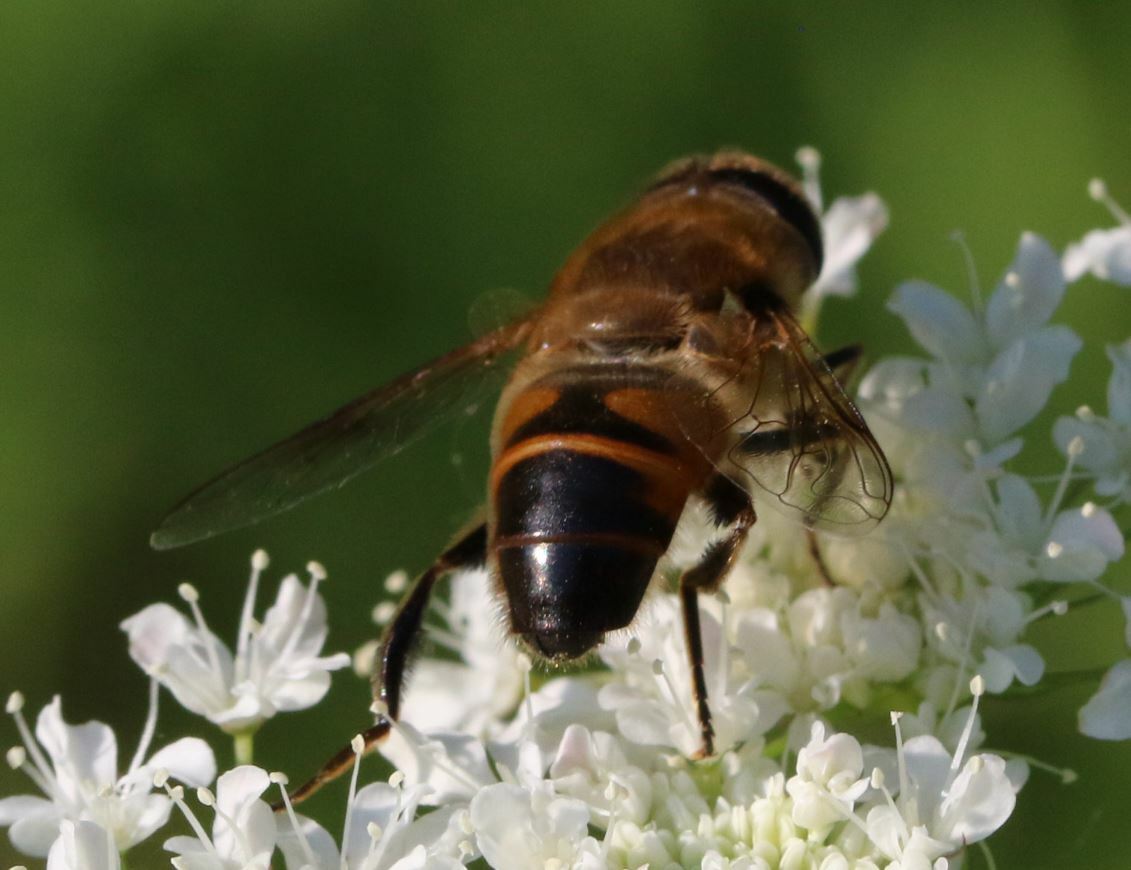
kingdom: Animalia
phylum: Arthropoda
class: Insecta
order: Diptera
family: Syrphidae
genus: Eristalis
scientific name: Eristalis tenax
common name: Drone fly
